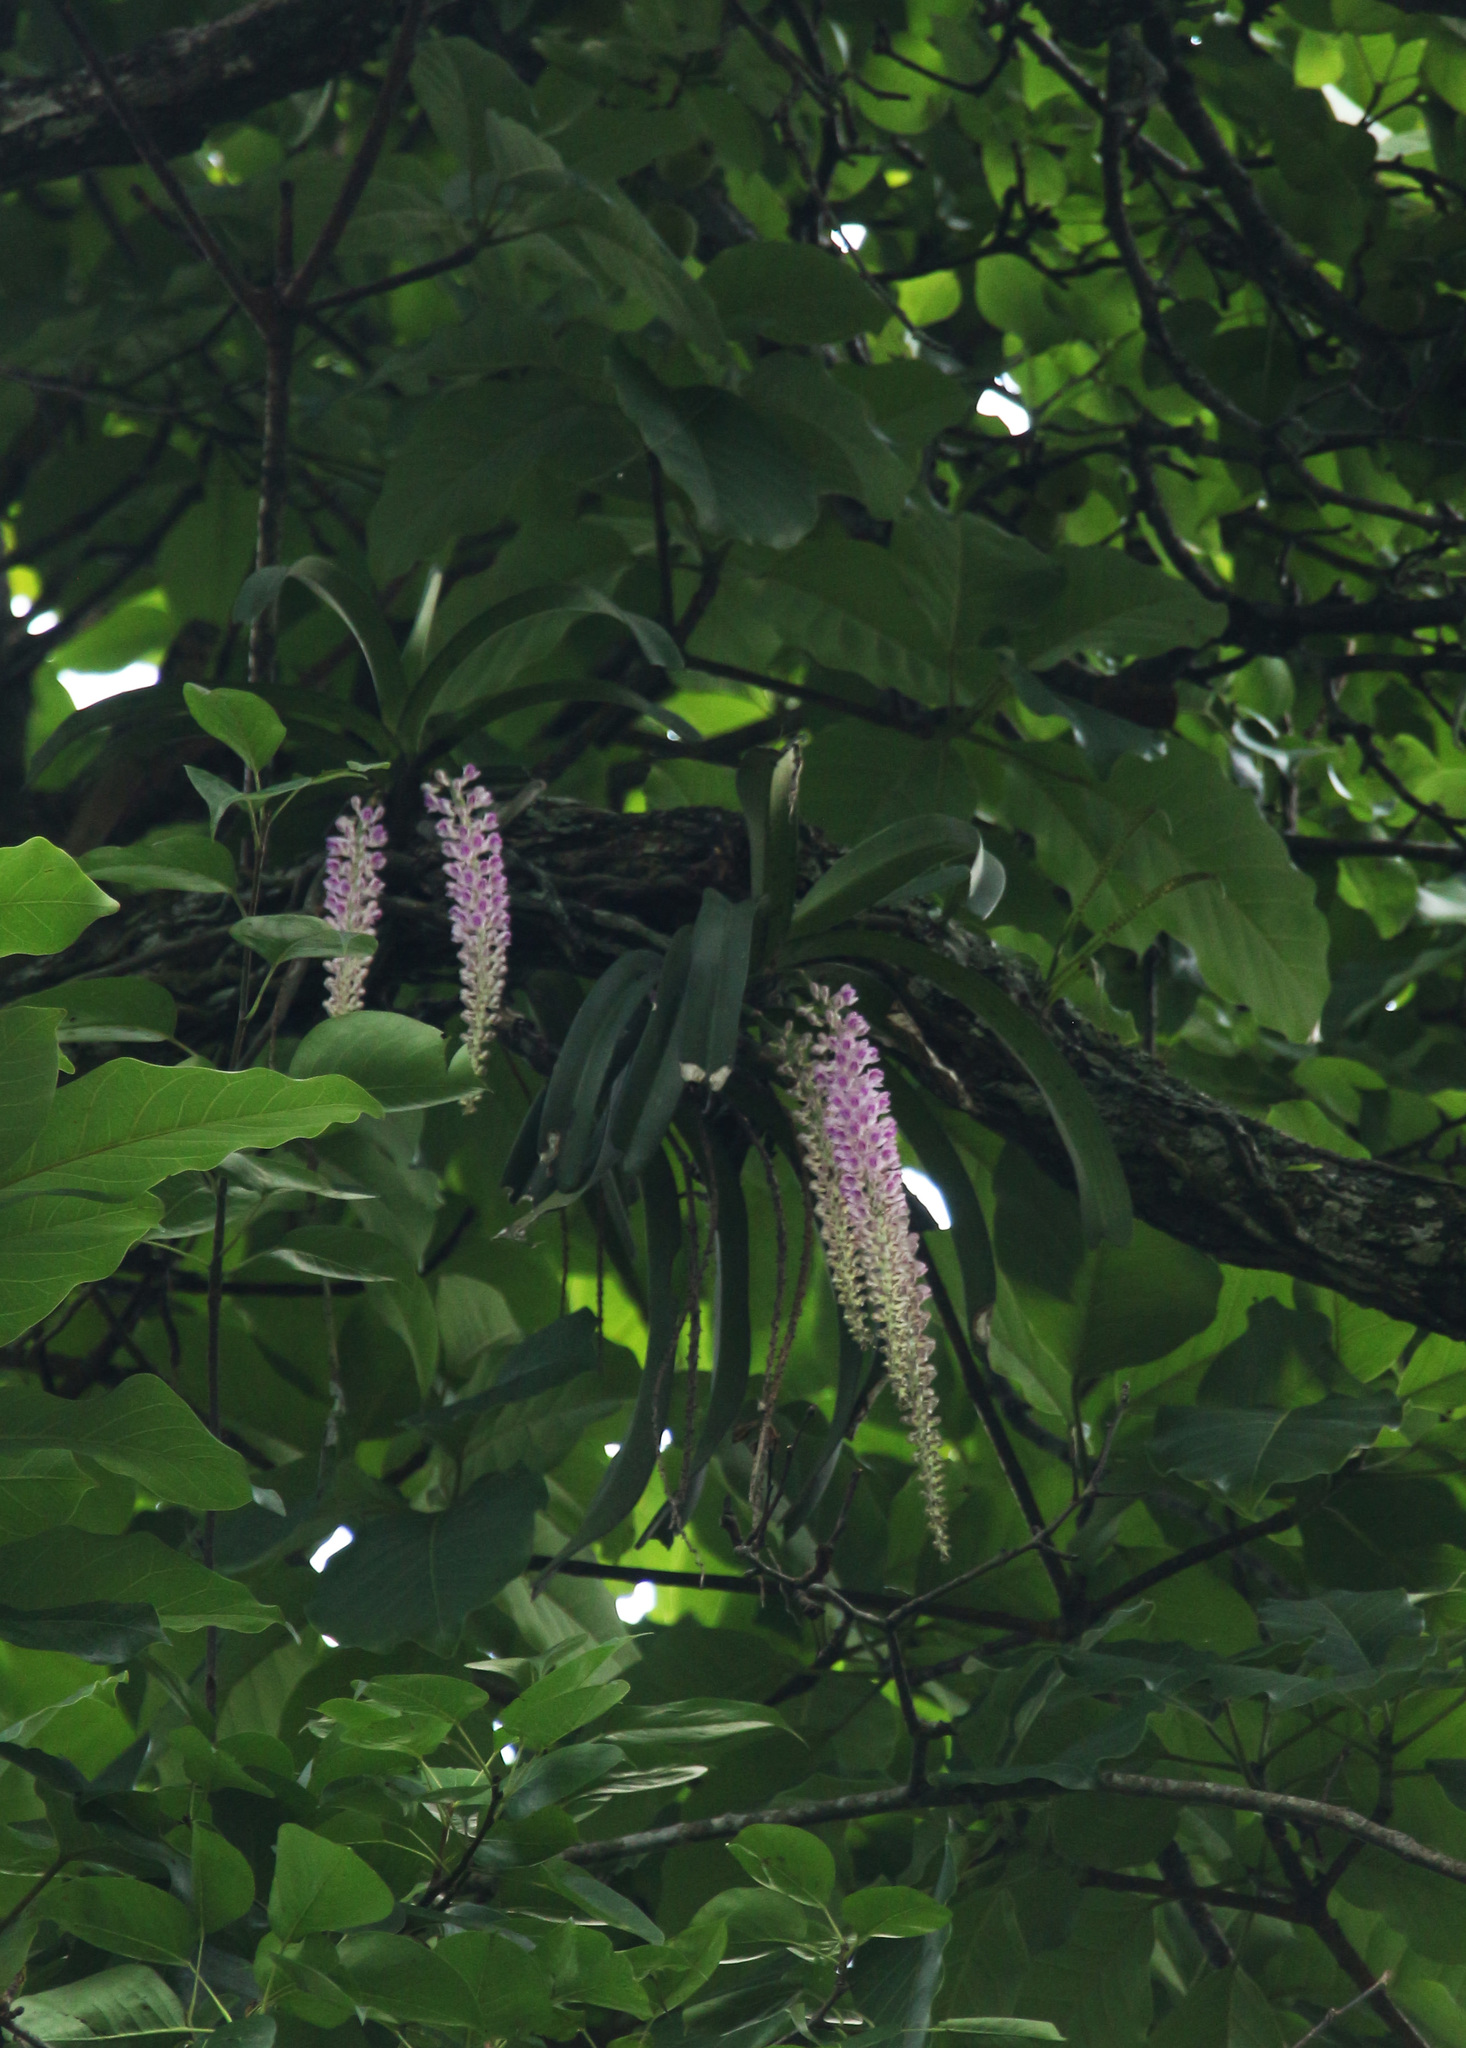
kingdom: Plantae
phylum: Tracheophyta
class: Liliopsida
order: Asparagales
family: Orchidaceae
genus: Rhynchostylis
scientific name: Rhynchostylis retusa
